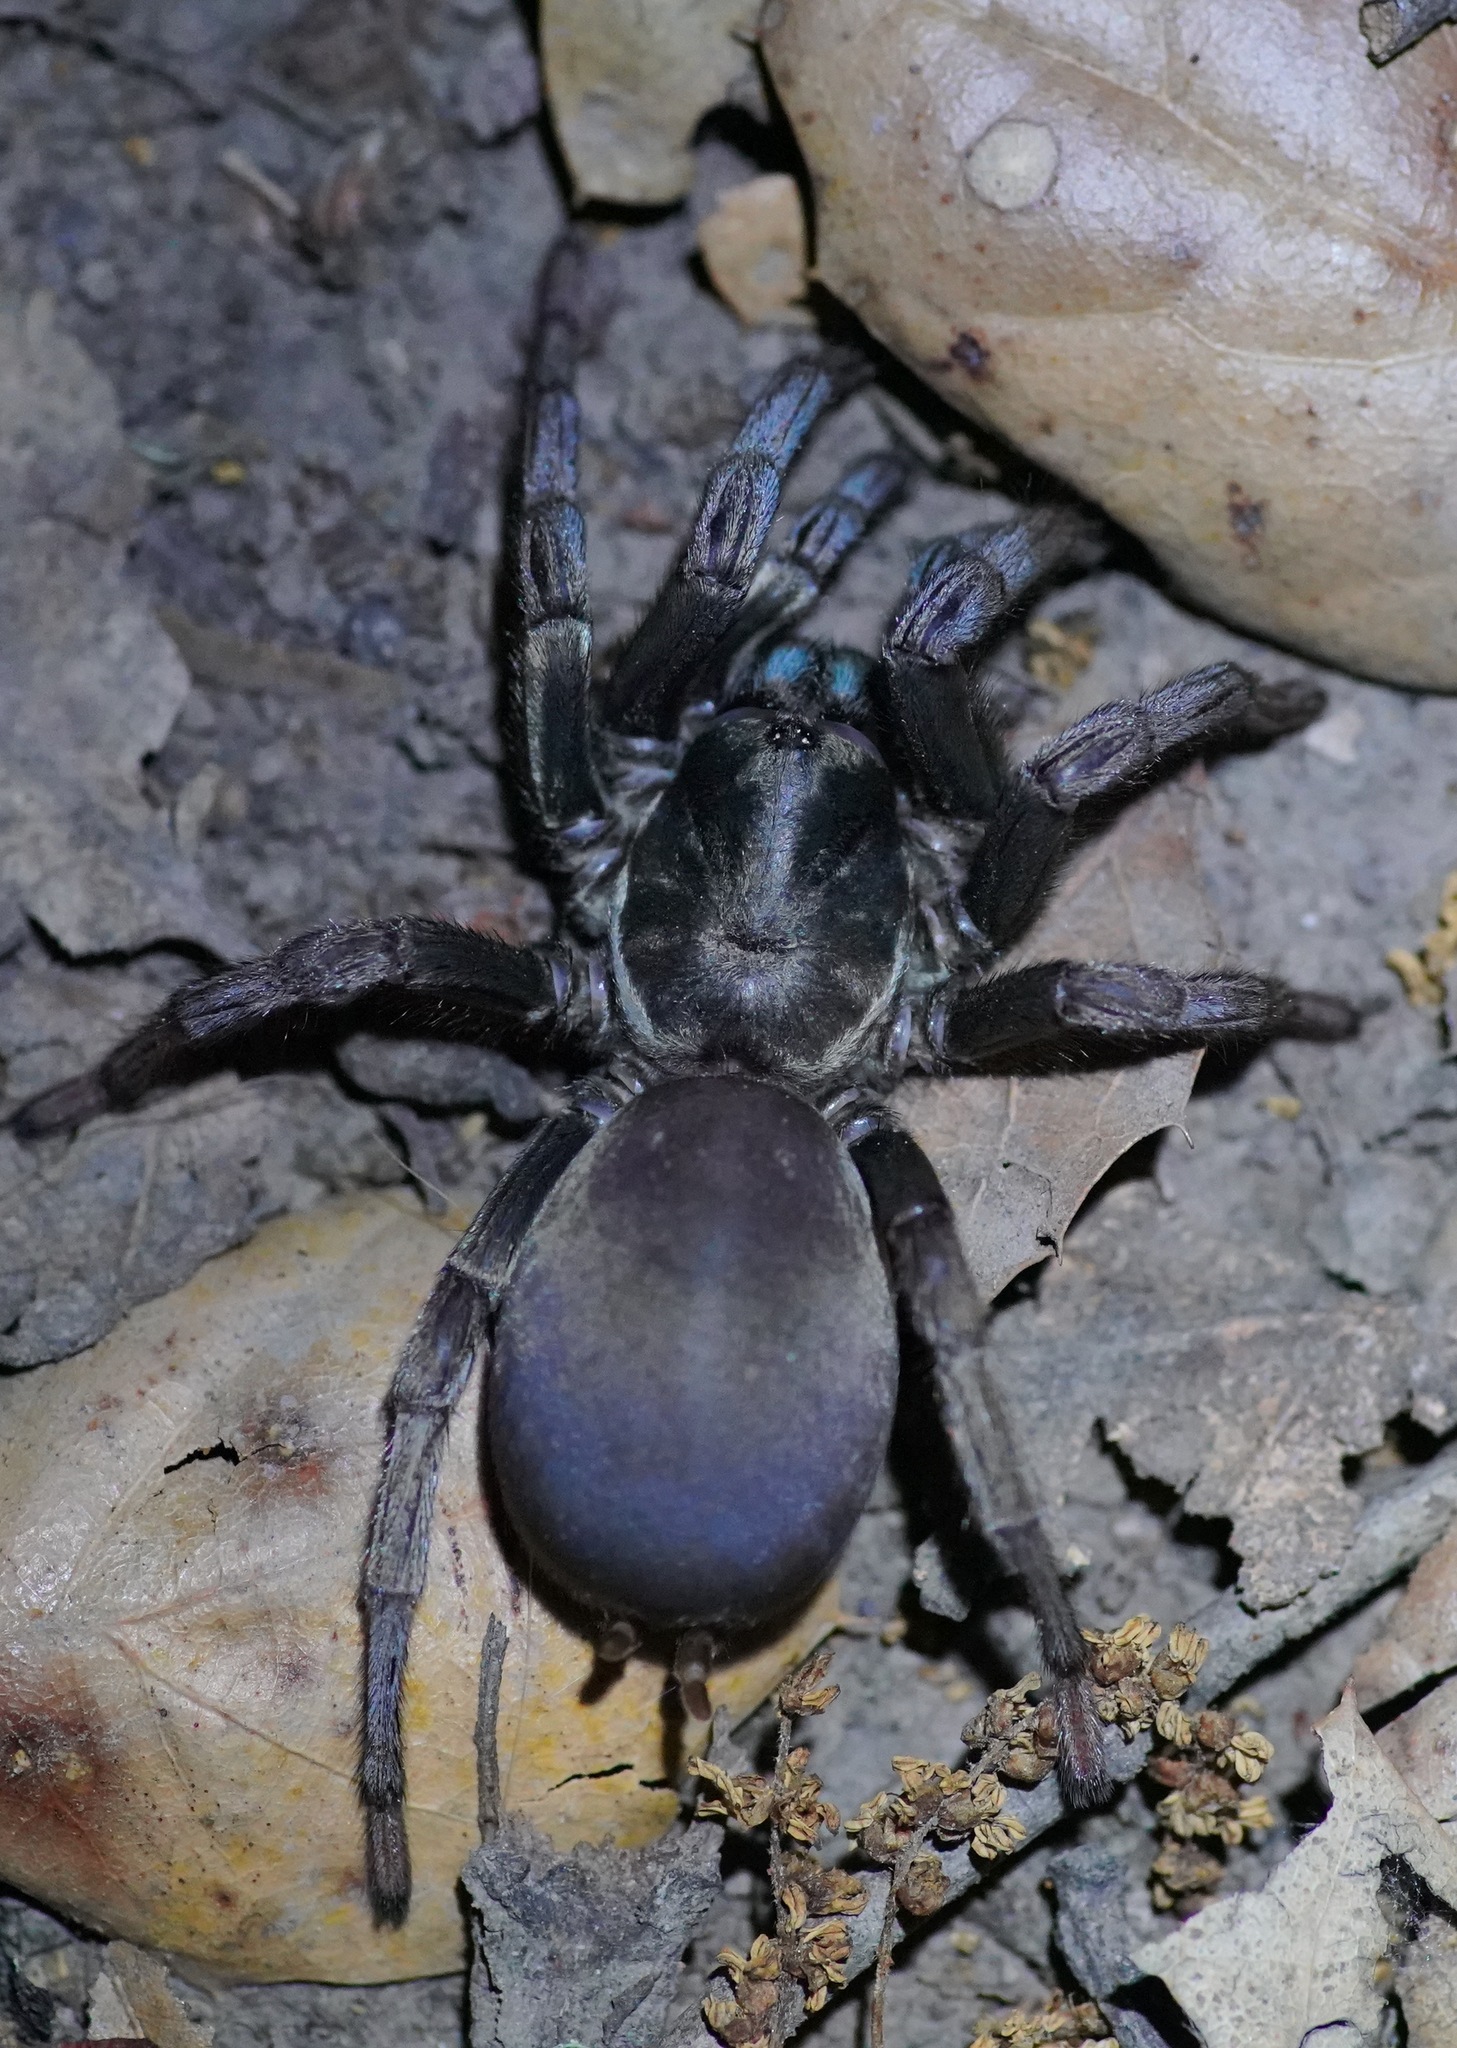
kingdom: Animalia
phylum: Arthropoda
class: Arachnida
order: Araneae
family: Nemesiidae
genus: Calisoga
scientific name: Calisoga longitarsis
